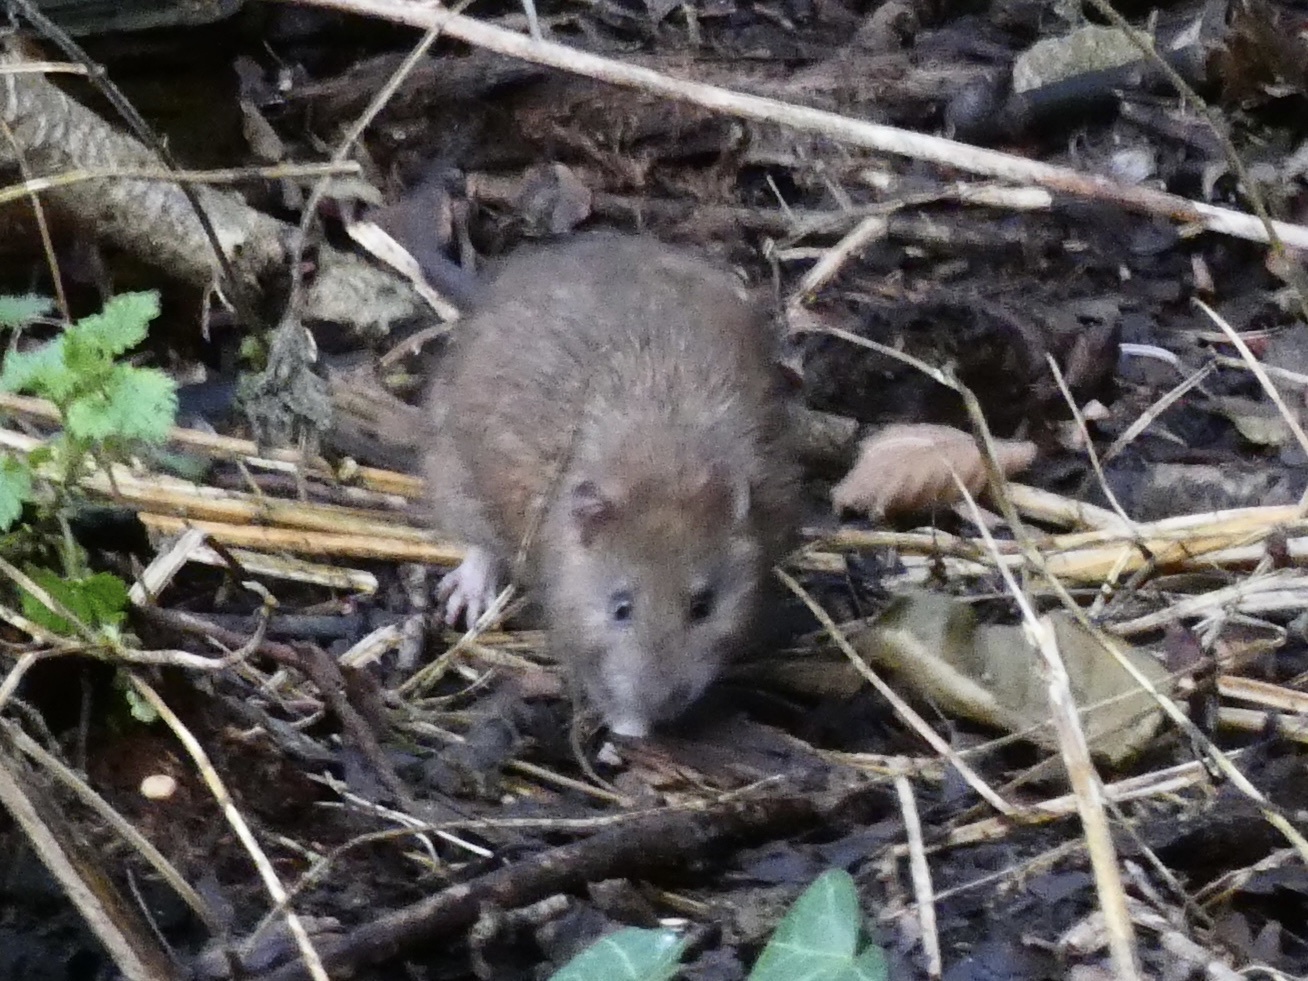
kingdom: Animalia
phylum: Chordata
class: Mammalia
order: Rodentia
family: Muridae
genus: Rattus
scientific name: Rattus norvegicus
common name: Brown rat
